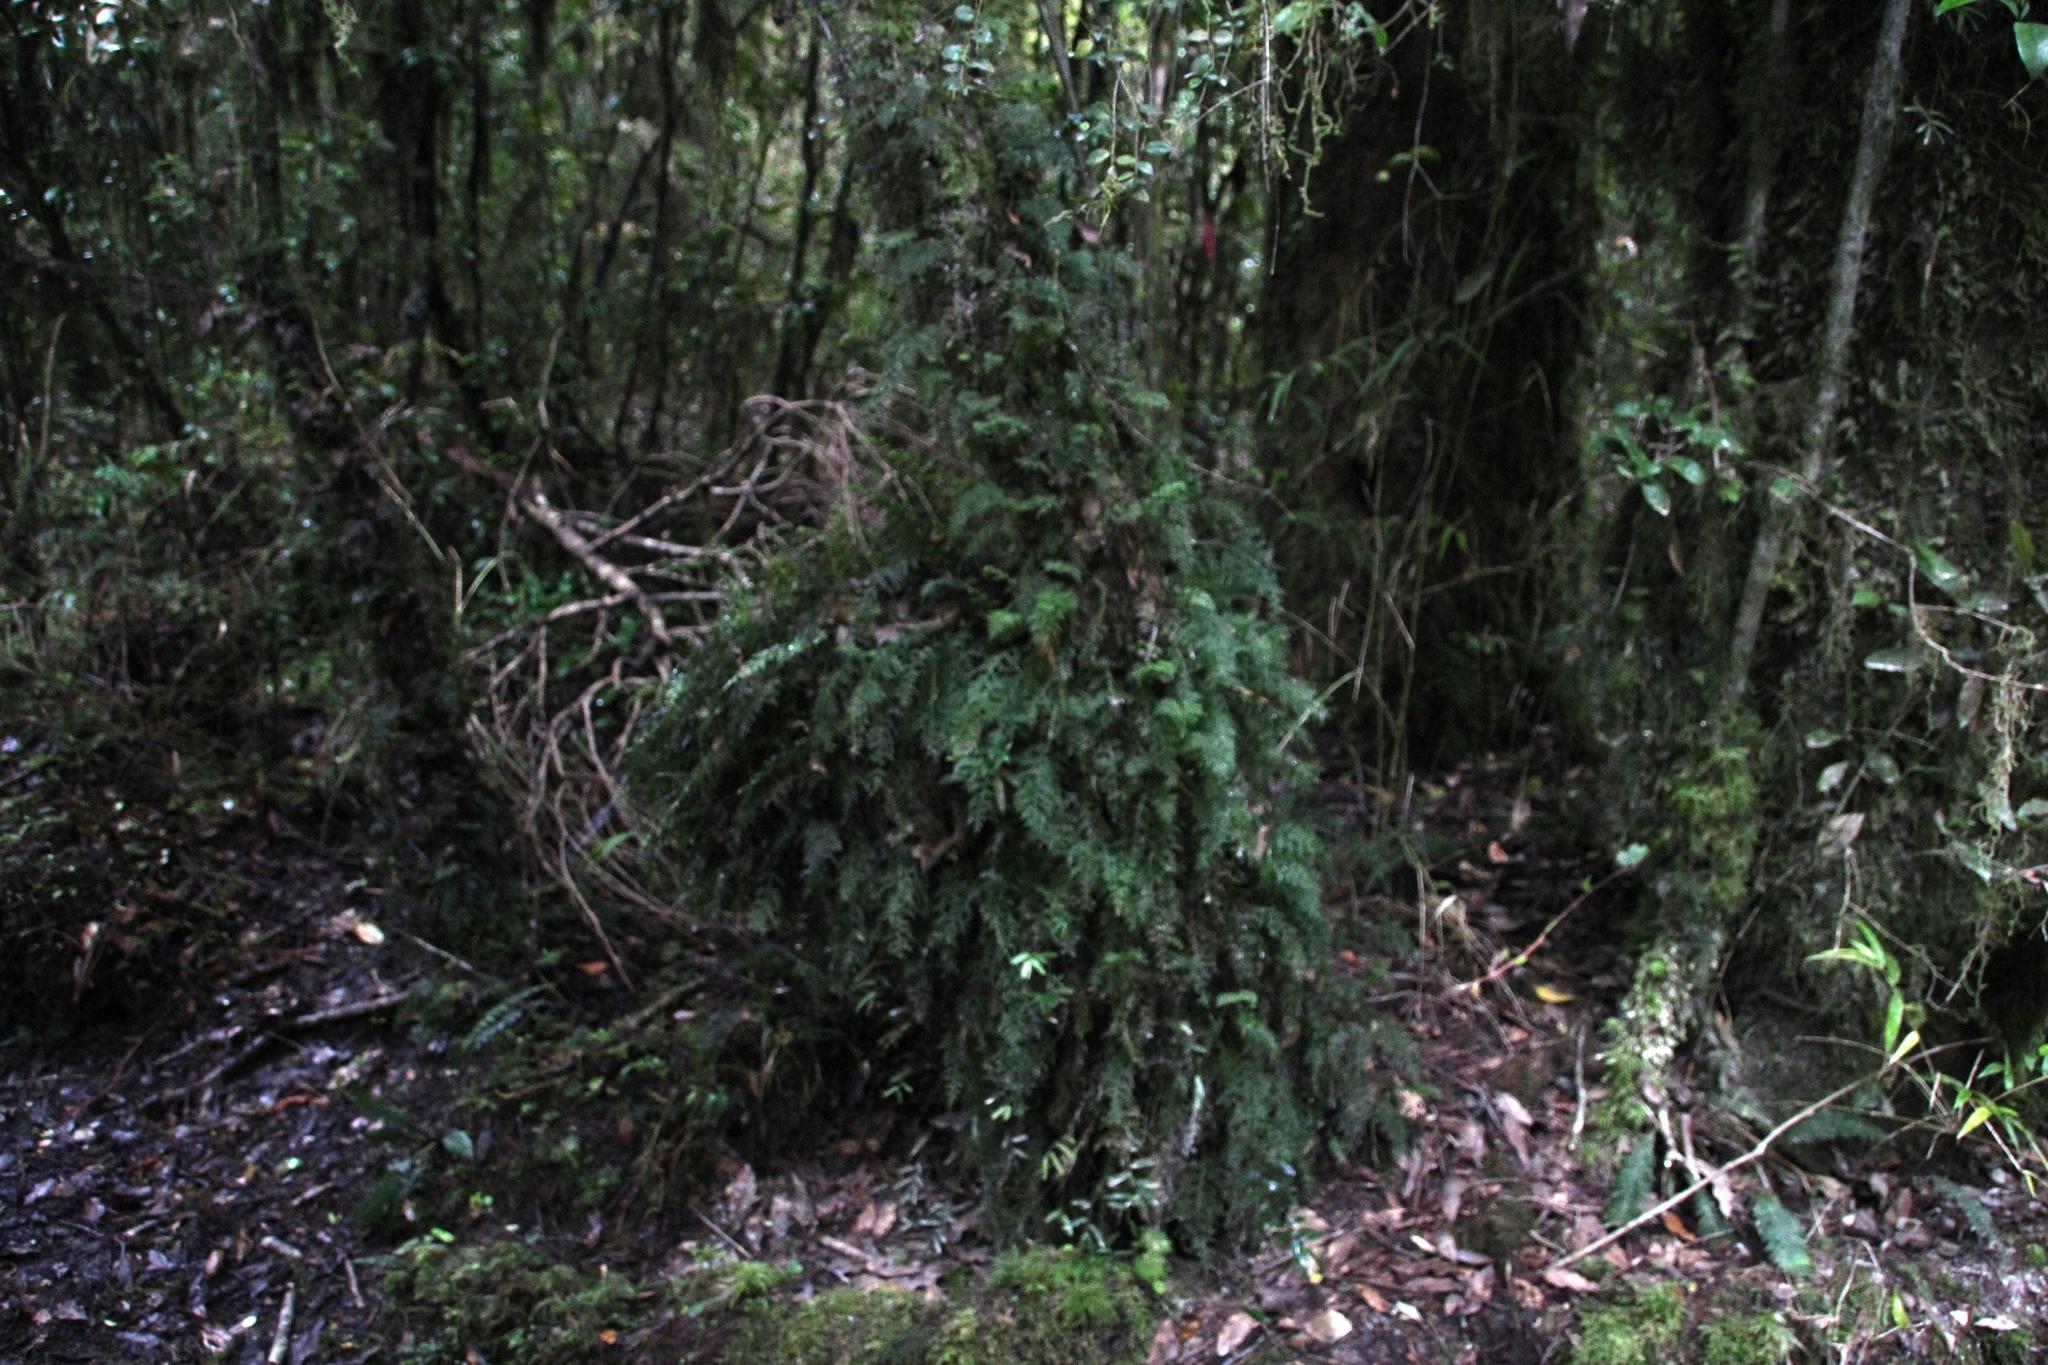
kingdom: Plantae
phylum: Tracheophyta
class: Polypodiopsida
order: Hymenophyllales
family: Hymenophyllaceae
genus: Hymenophyllum
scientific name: Hymenophyllum caudiculatum
